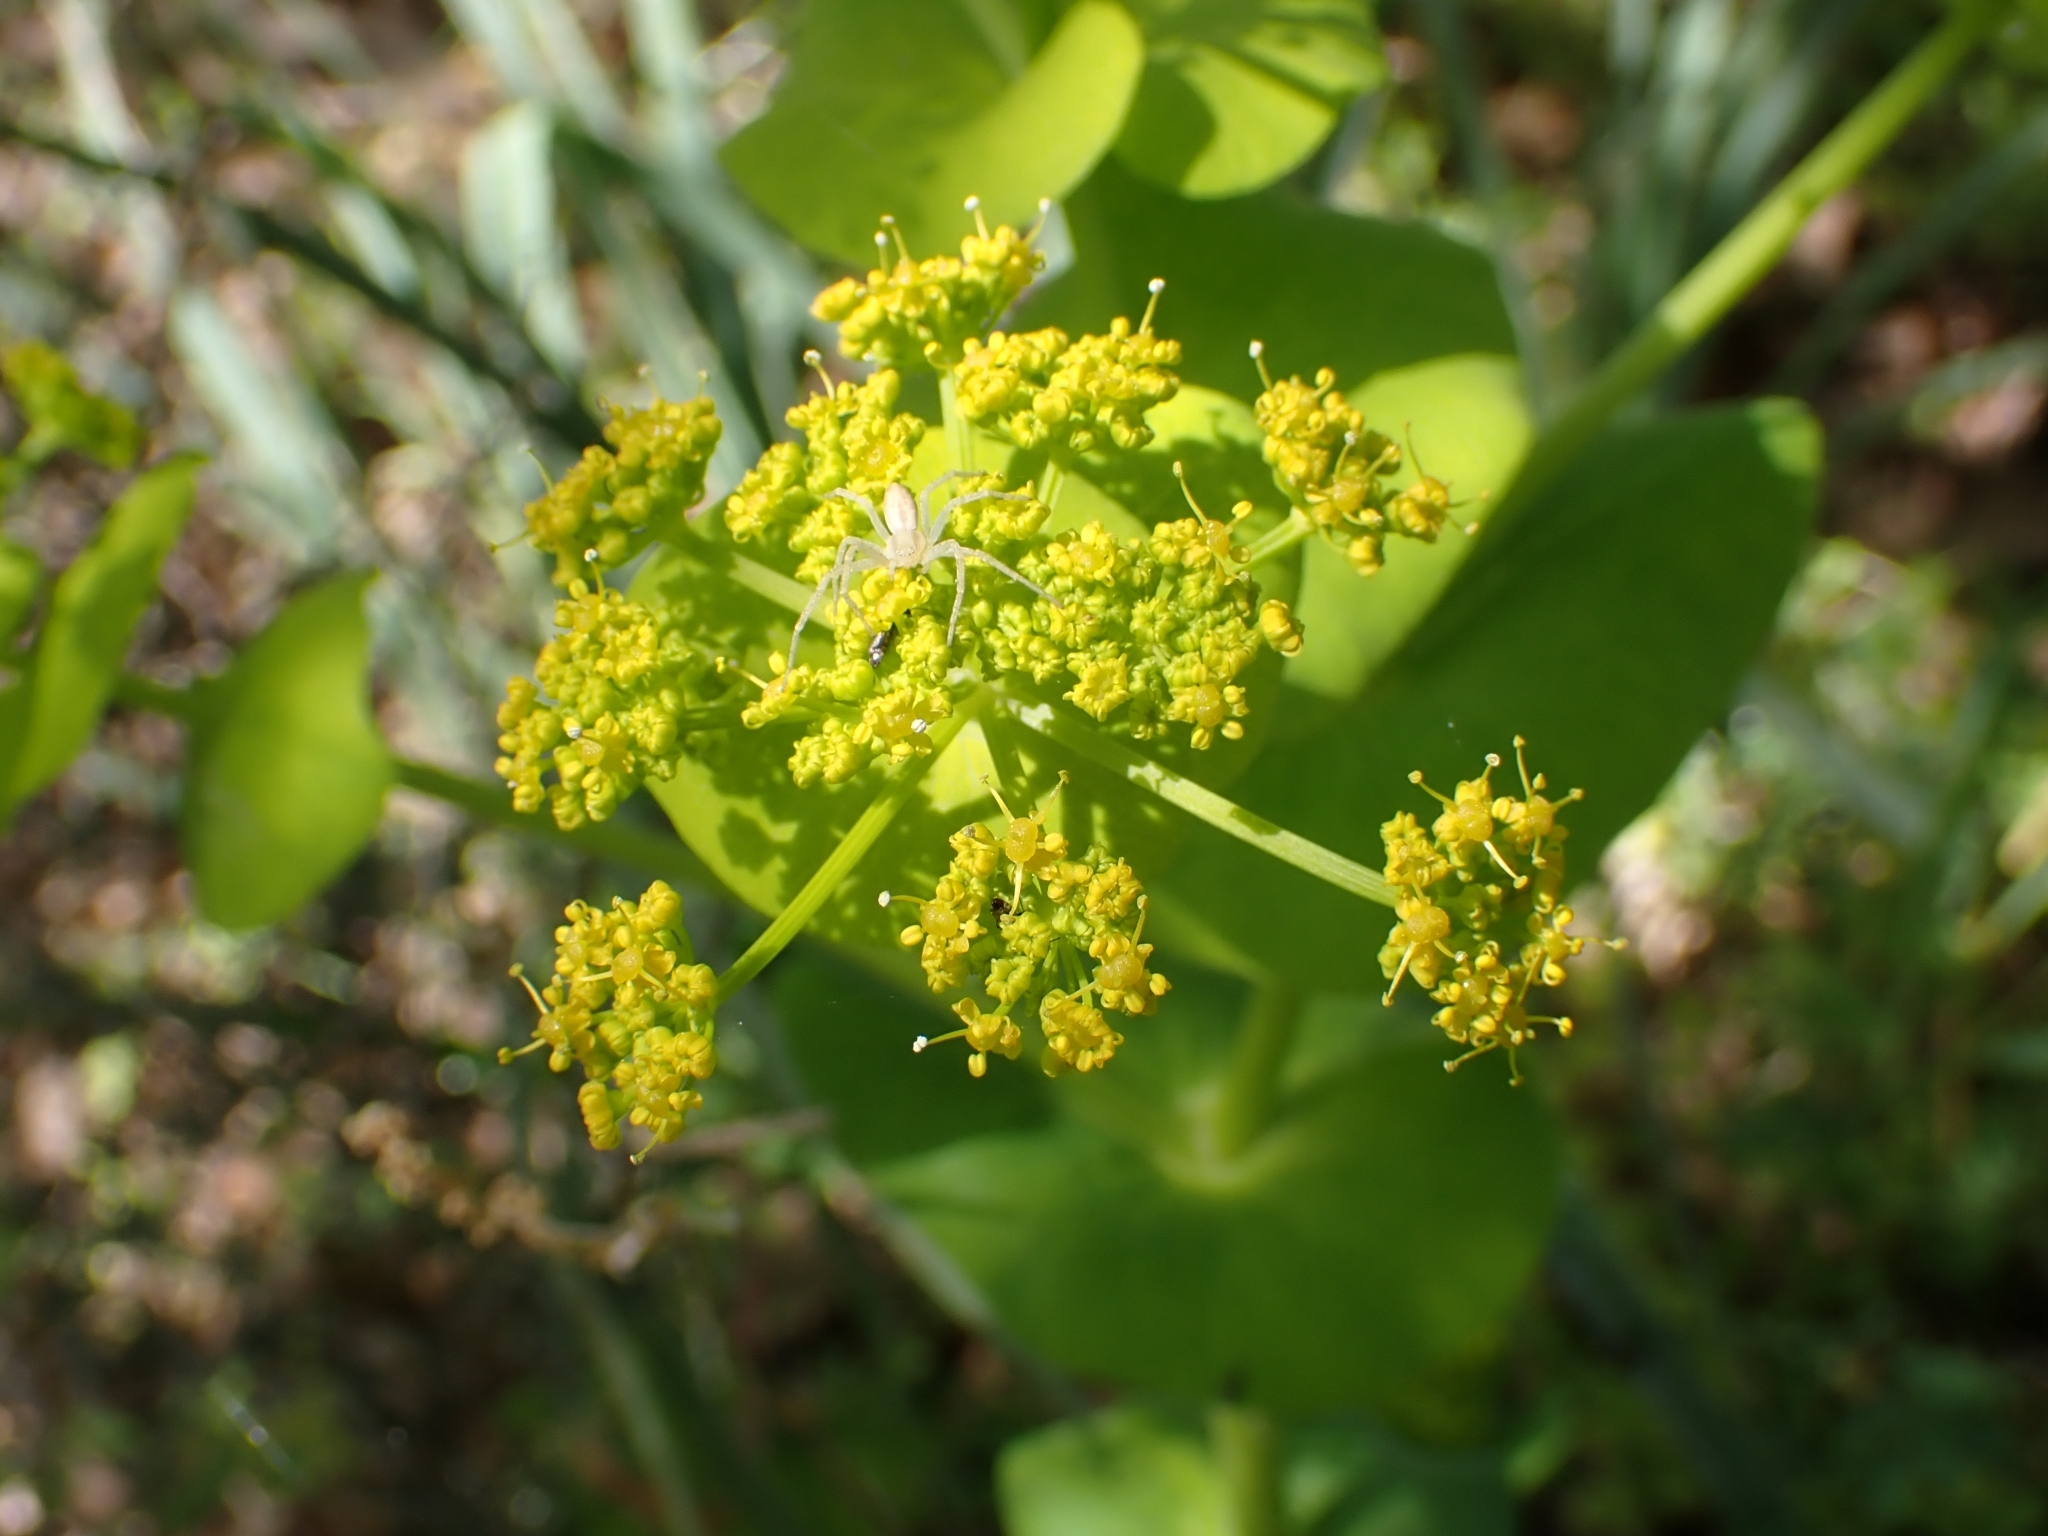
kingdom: Plantae
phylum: Tracheophyta
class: Magnoliopsida
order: Apiales
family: Apiaceae
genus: Smyrnium
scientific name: Smyrnium perfoliatum
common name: Perfoliate alexanders
